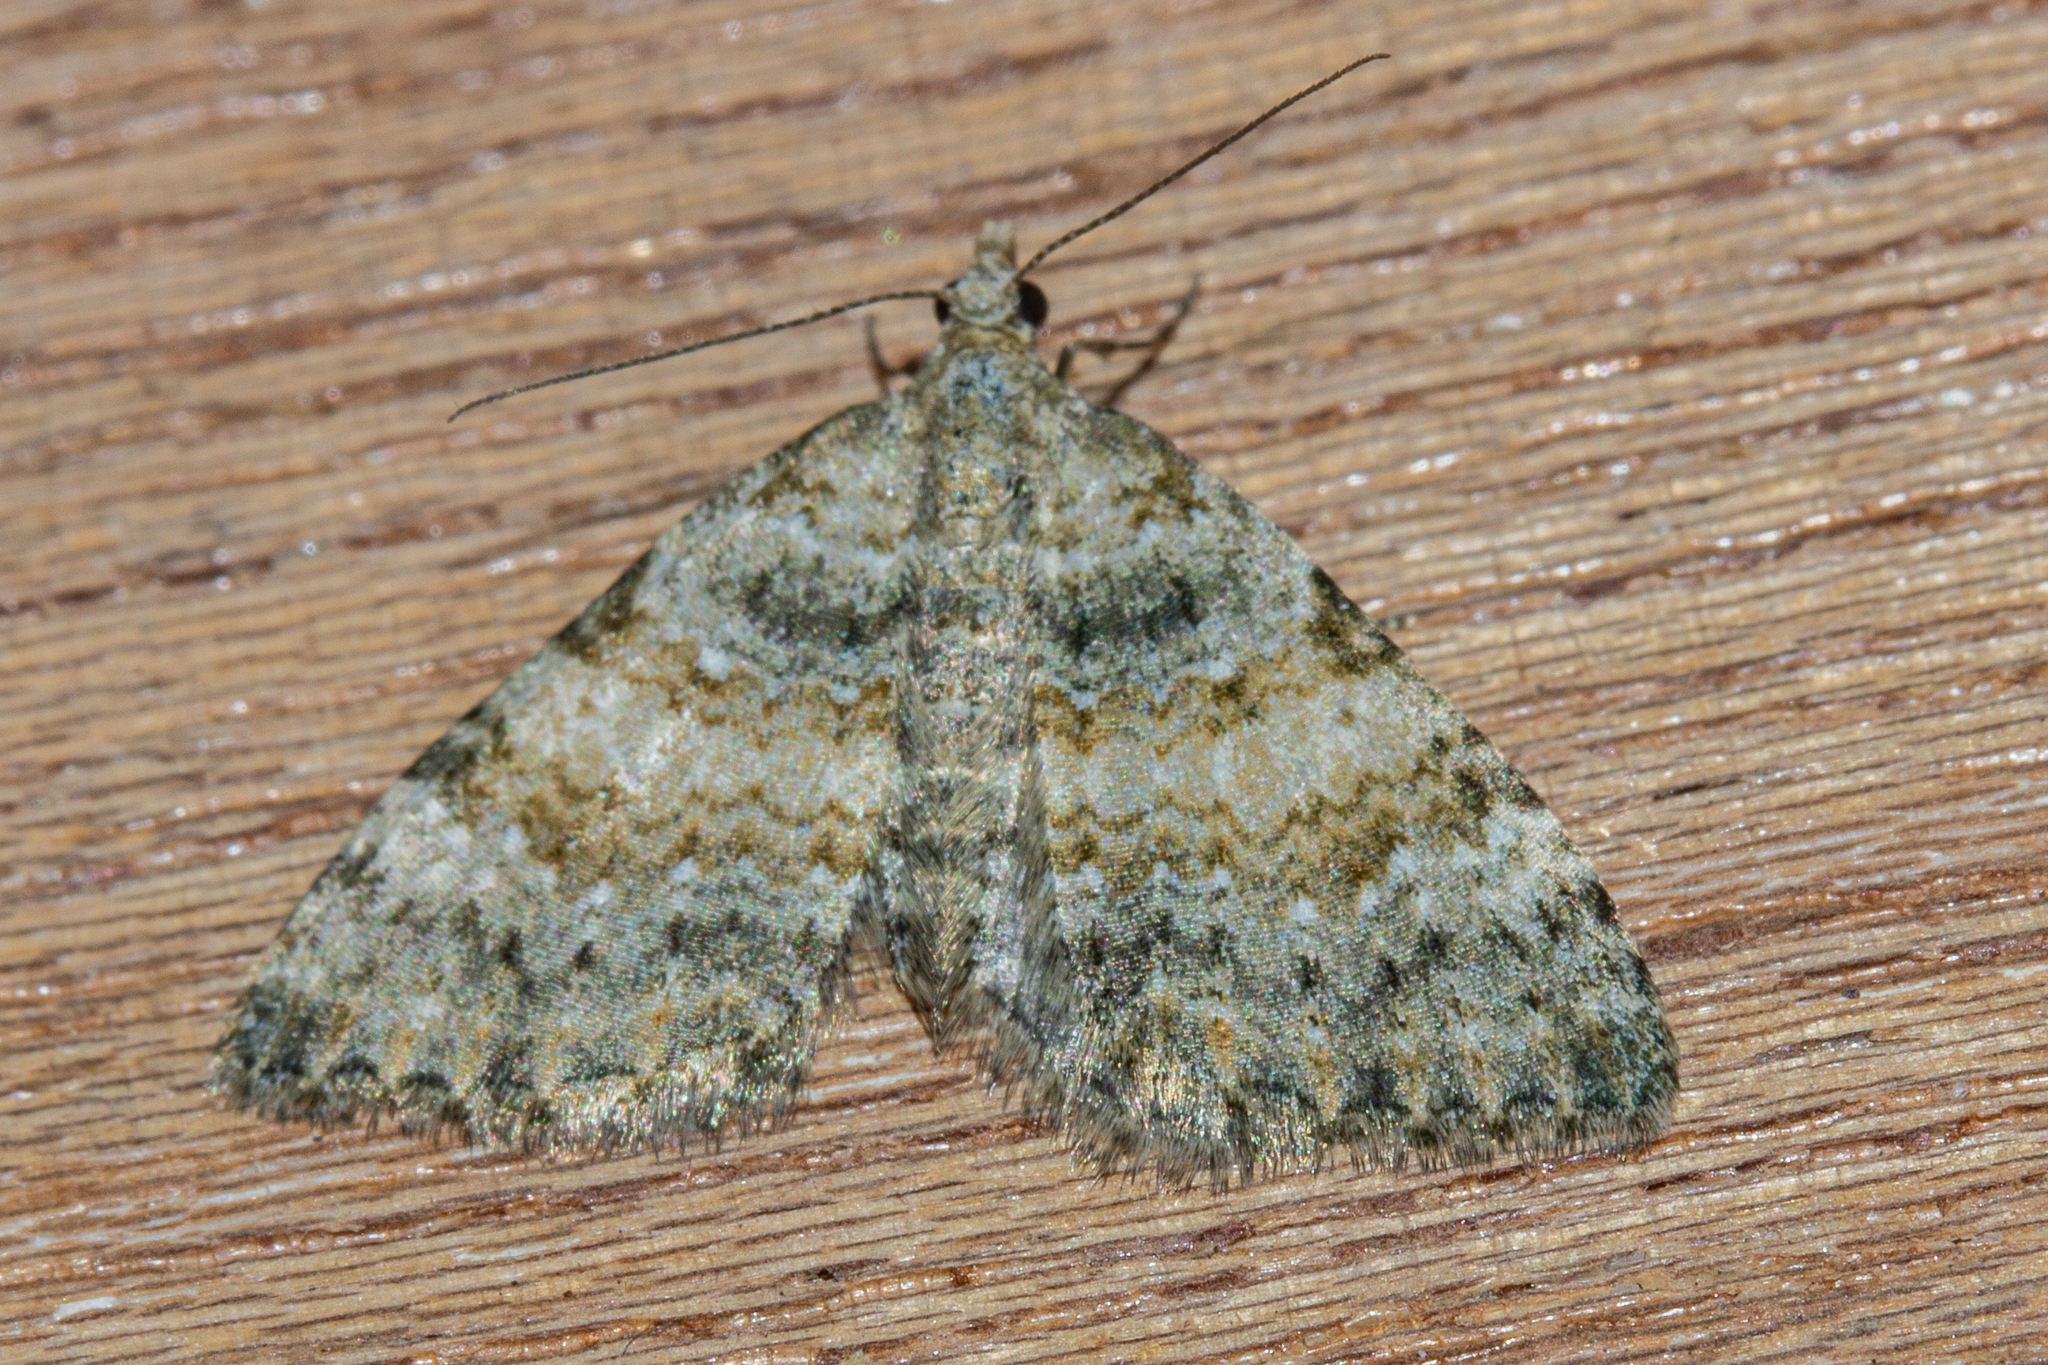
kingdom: Animalia
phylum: Arthropoda
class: Insecta
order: Lepidoptera
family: Geometridae
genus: Helastia
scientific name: Helastia christinae
